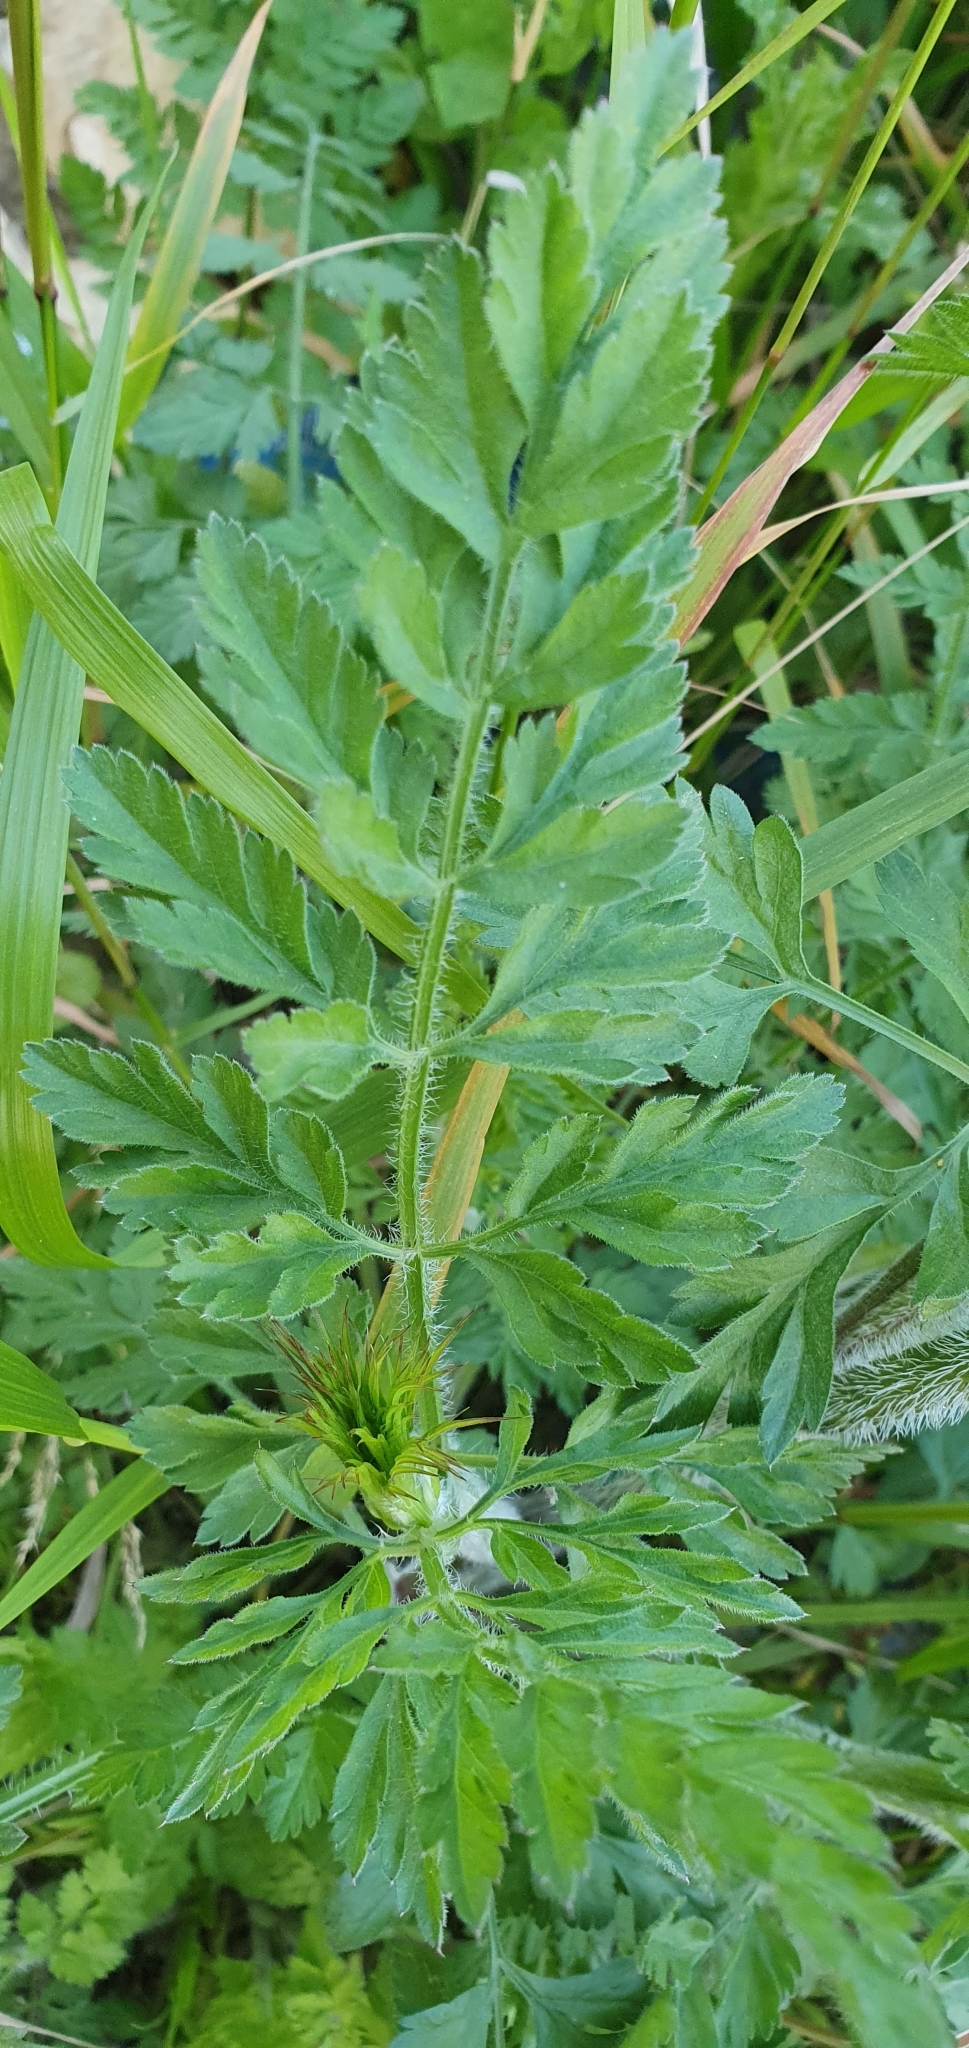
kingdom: Plantae
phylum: Tracheophyta
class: Magnoliopsida
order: Apiales
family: Apiaceae
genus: Daucus
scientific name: Daucus carota
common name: Wild carrot
